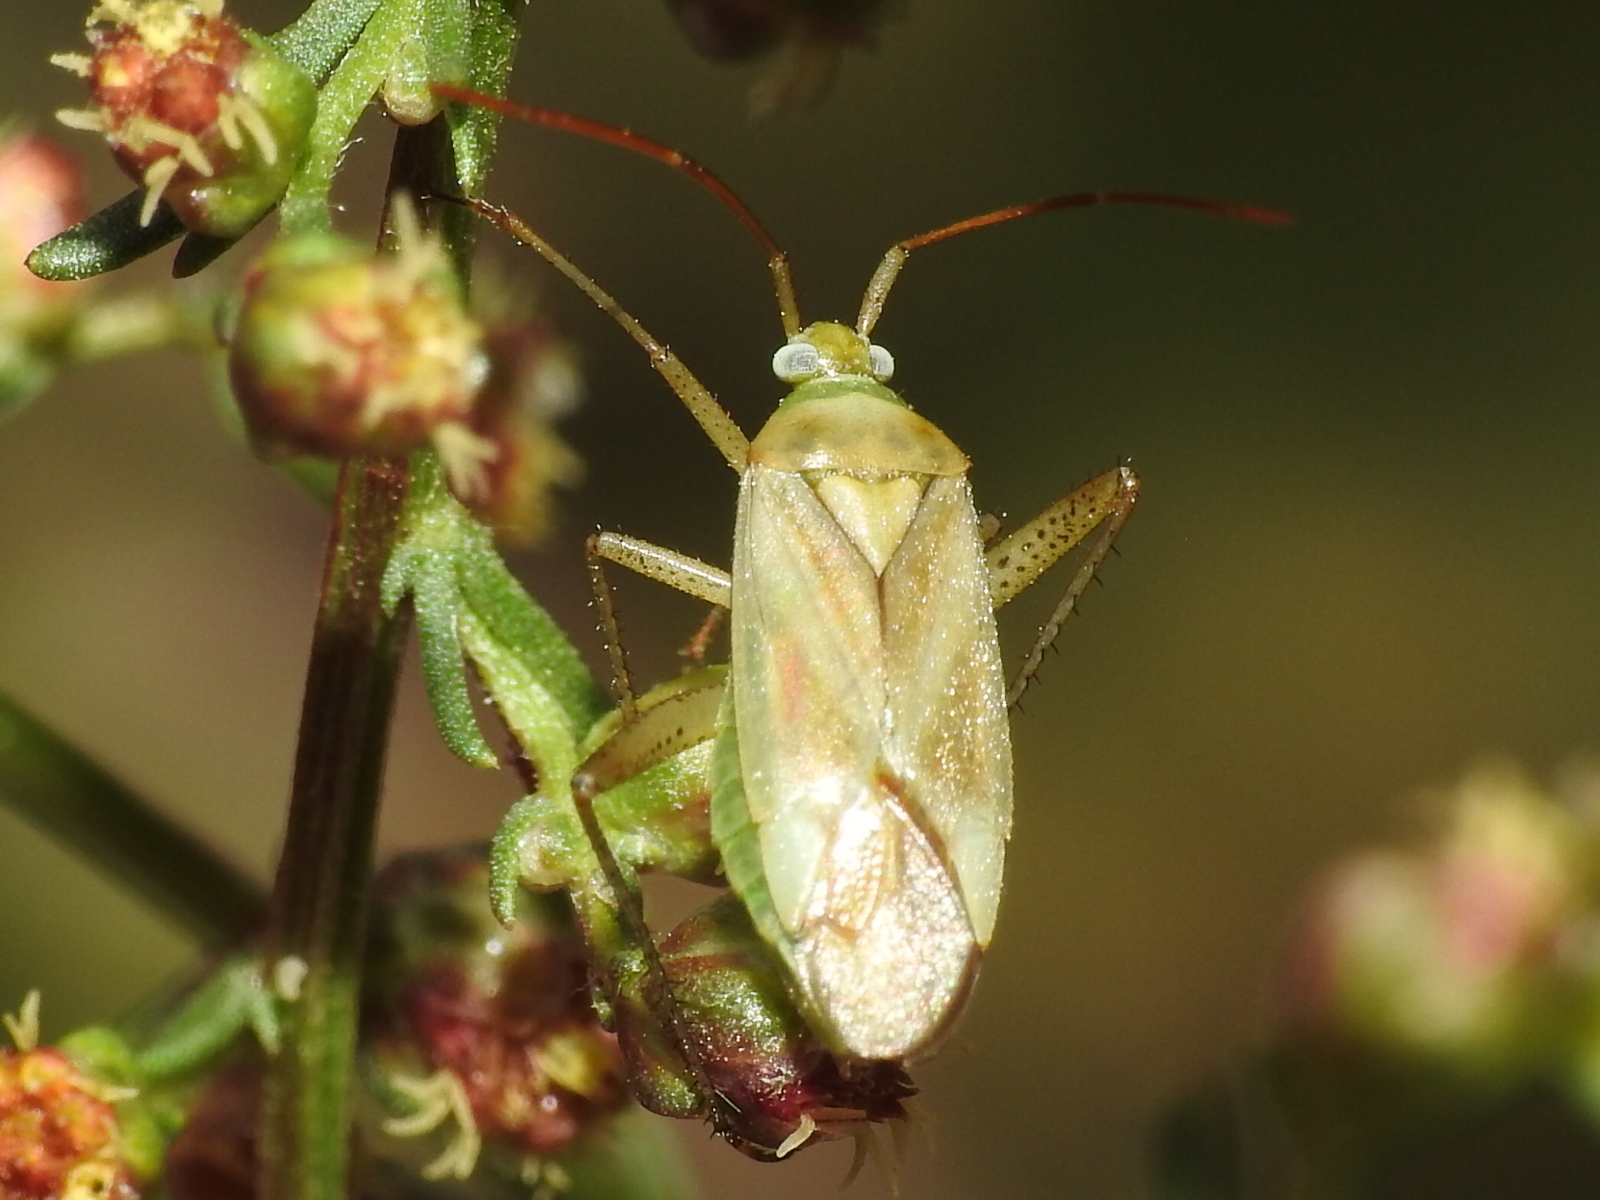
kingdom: Animalia
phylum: Arthropoda
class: Insecta
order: Hemiptera
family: Miridae
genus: Adelphocoris
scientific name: Adelphocoris lineolatus
